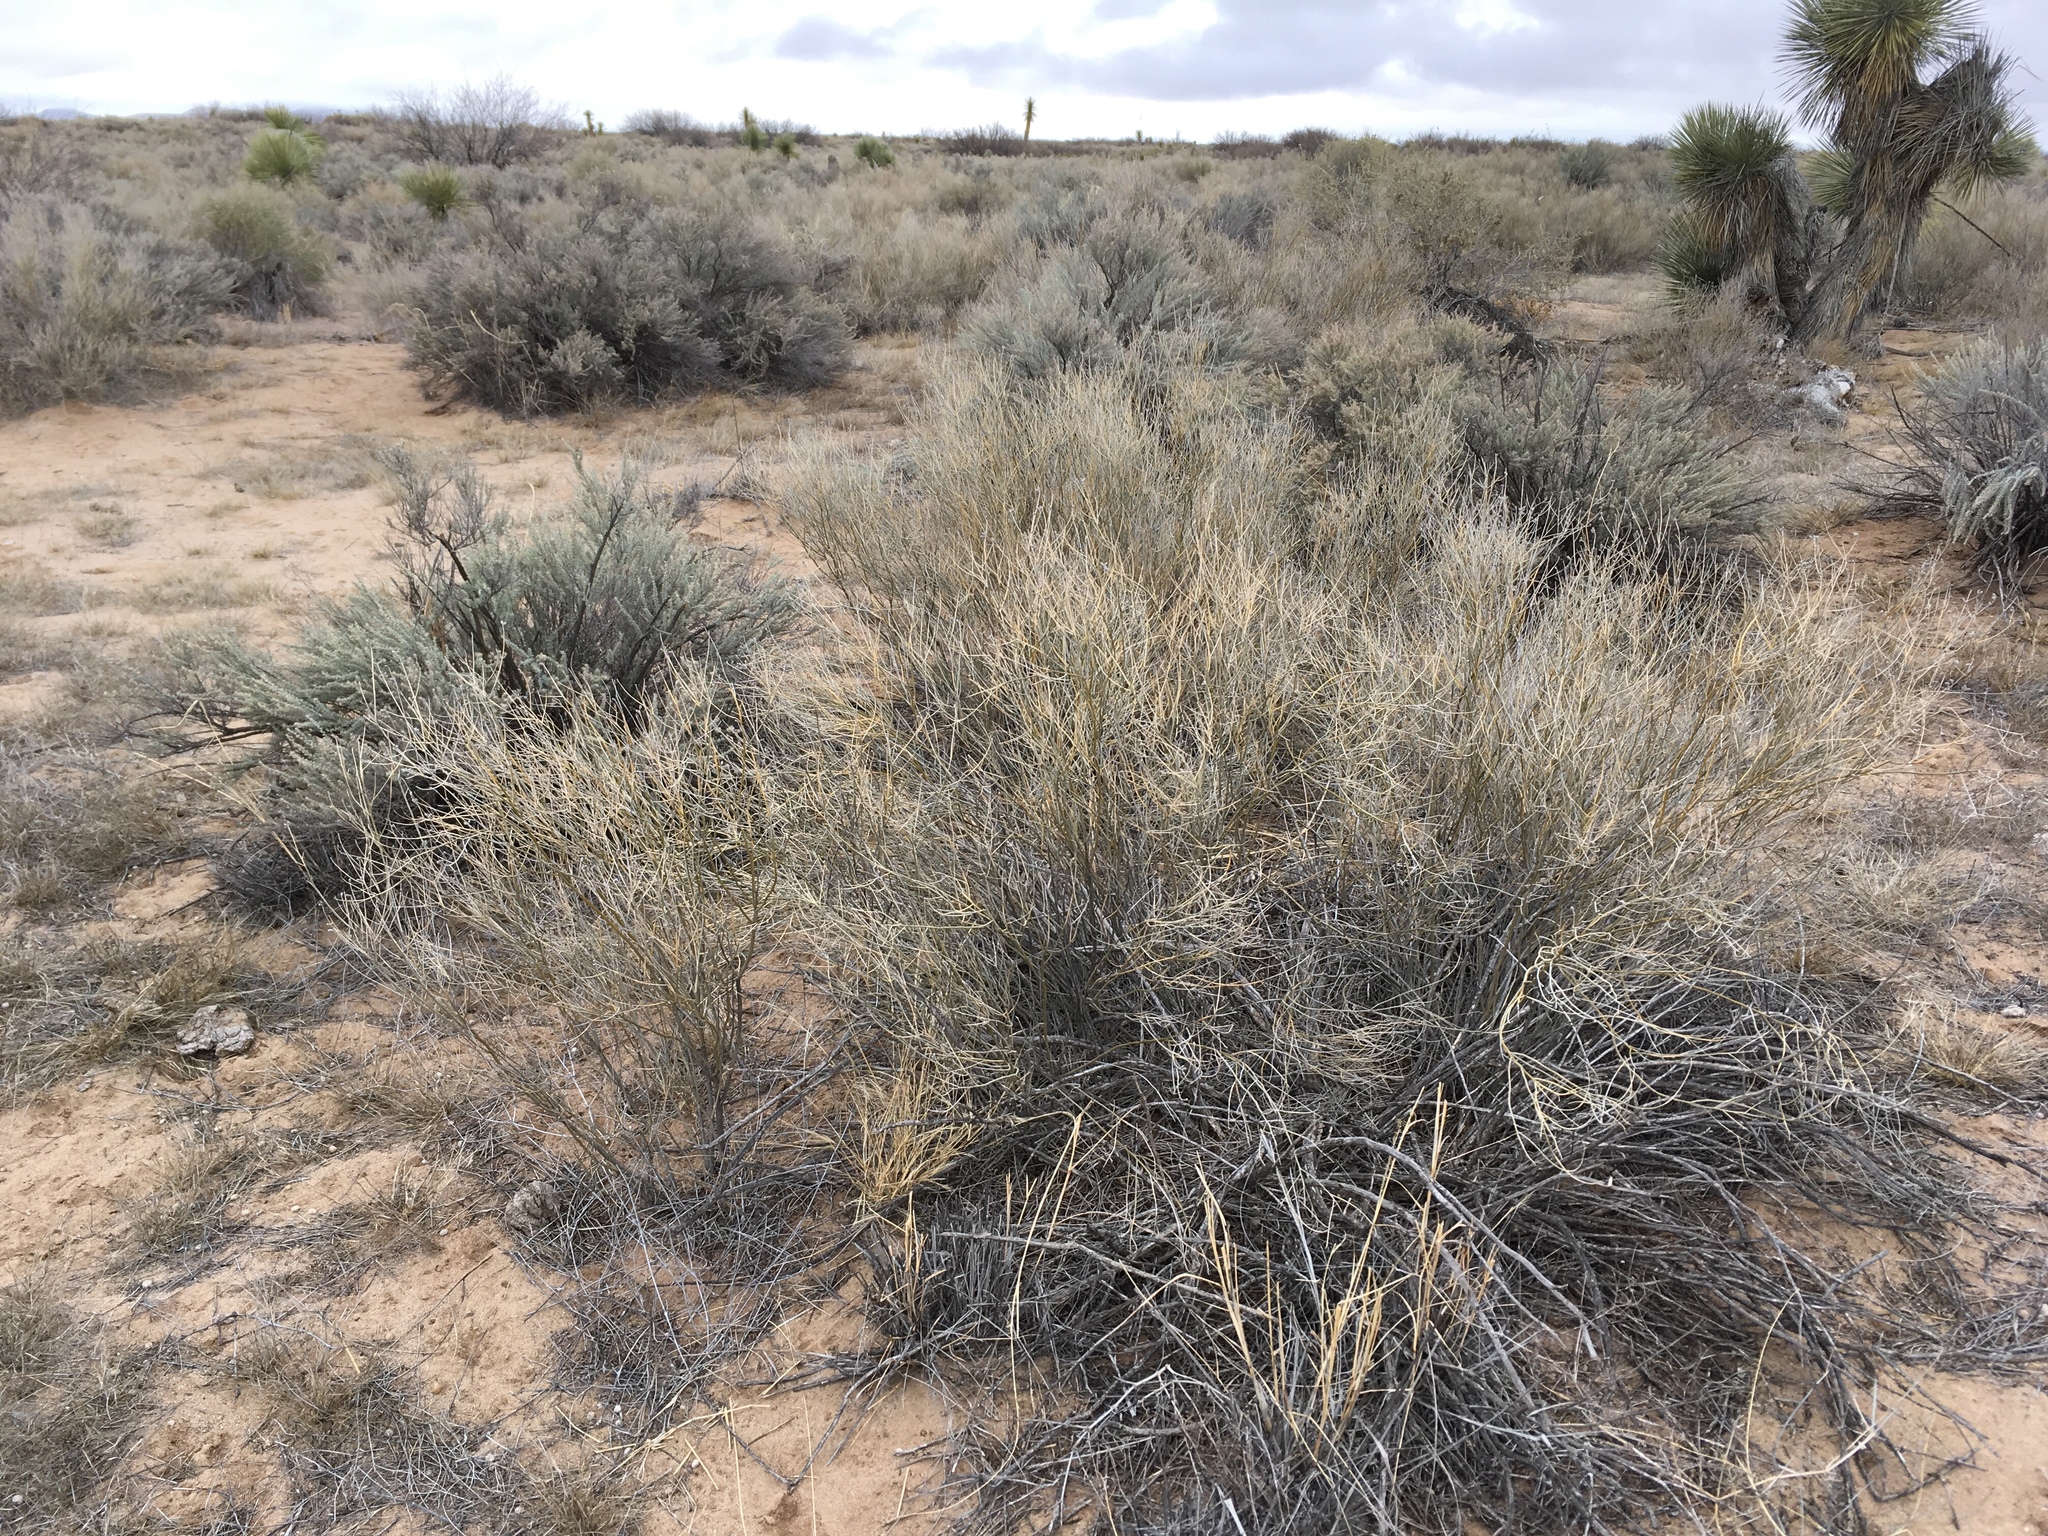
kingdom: Plantae
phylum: Tracheophyta
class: Magnoliopsida
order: Fabales
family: Fabaceae
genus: Psorothamnus
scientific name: Psorothamnus scoparius
